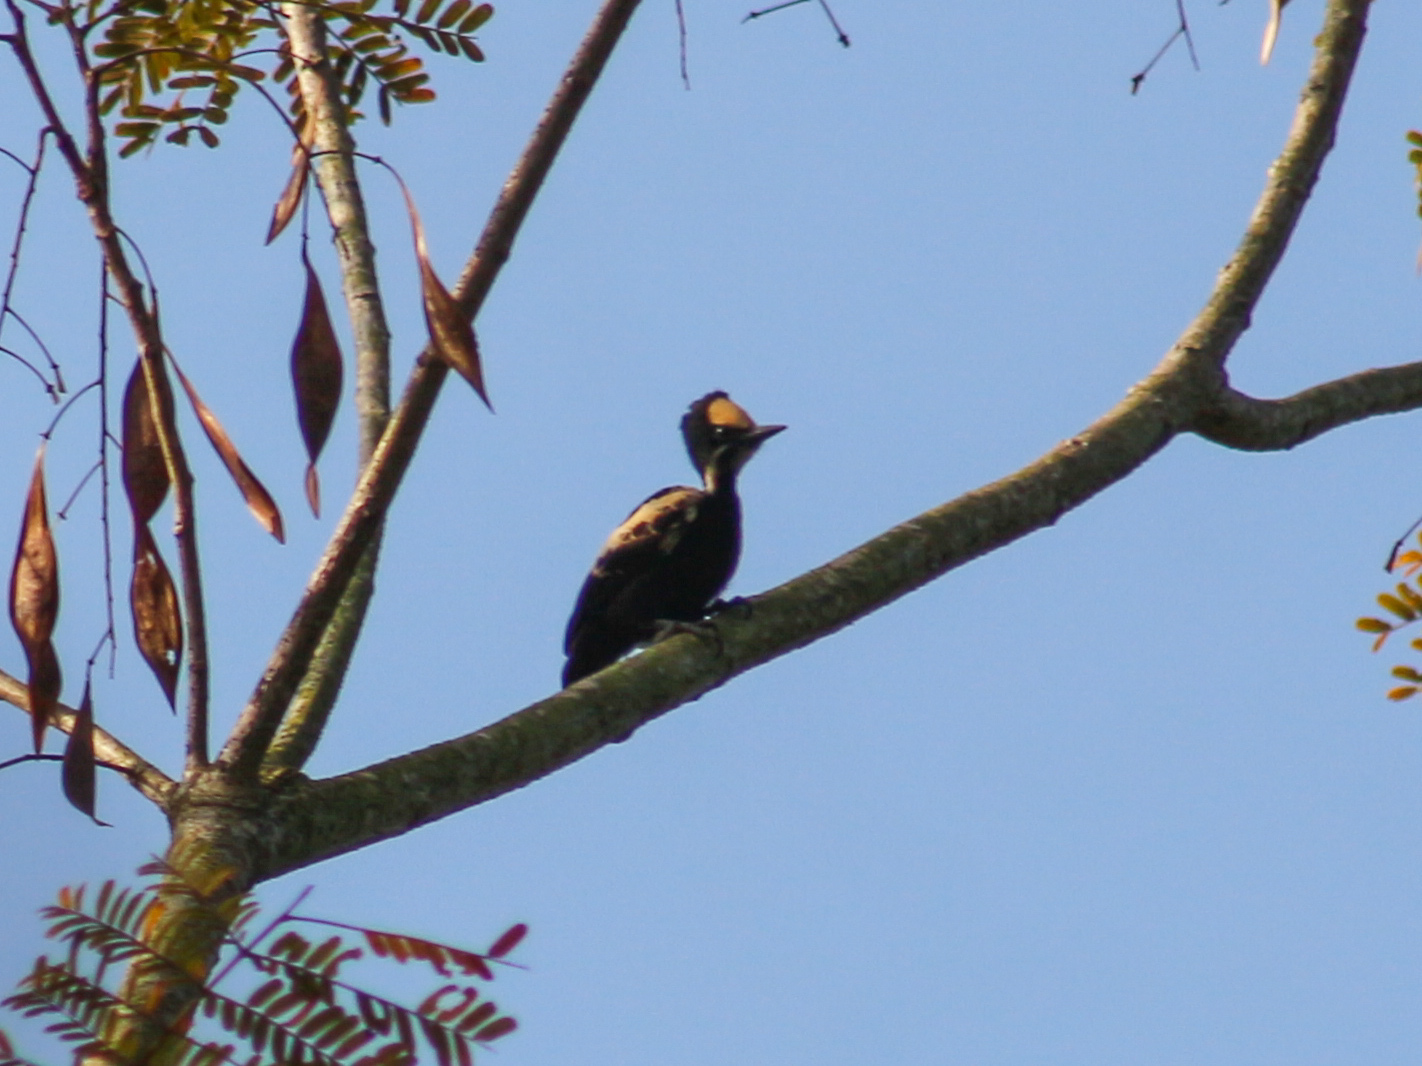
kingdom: Animalia
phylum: Chordata
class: Aves
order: Piciformes
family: Picidae
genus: Hemicircus
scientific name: Hemicircus canente
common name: Heart-spotted woodpecker
